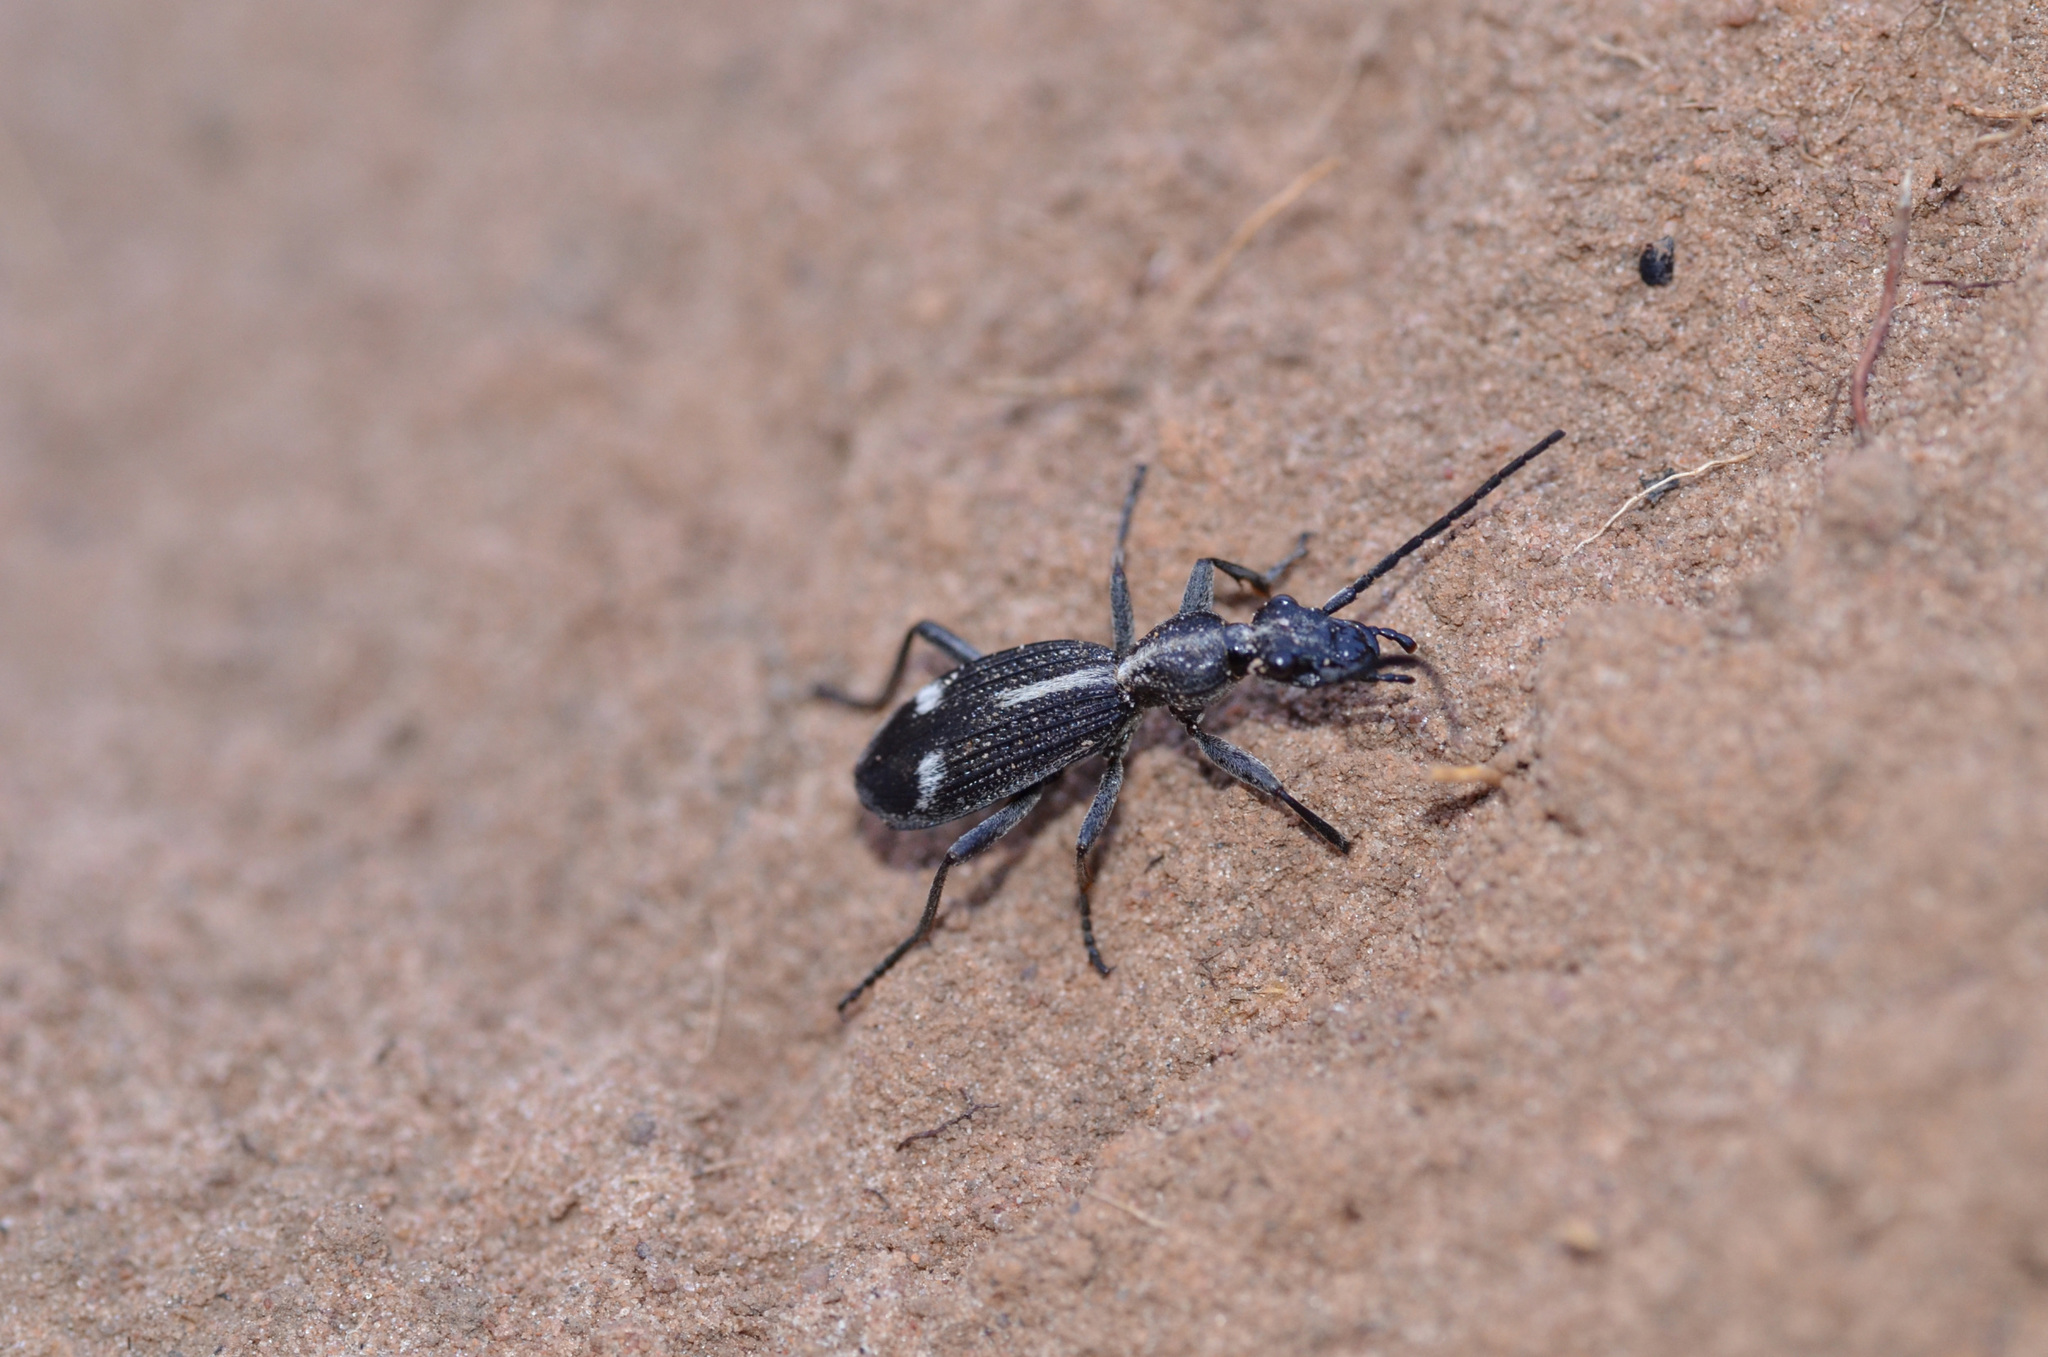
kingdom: Animalia
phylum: Arthropoda
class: Insecta
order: Coleoptera
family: Carabidae
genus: Cypholoba
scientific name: Cypholoba graphipteroides
